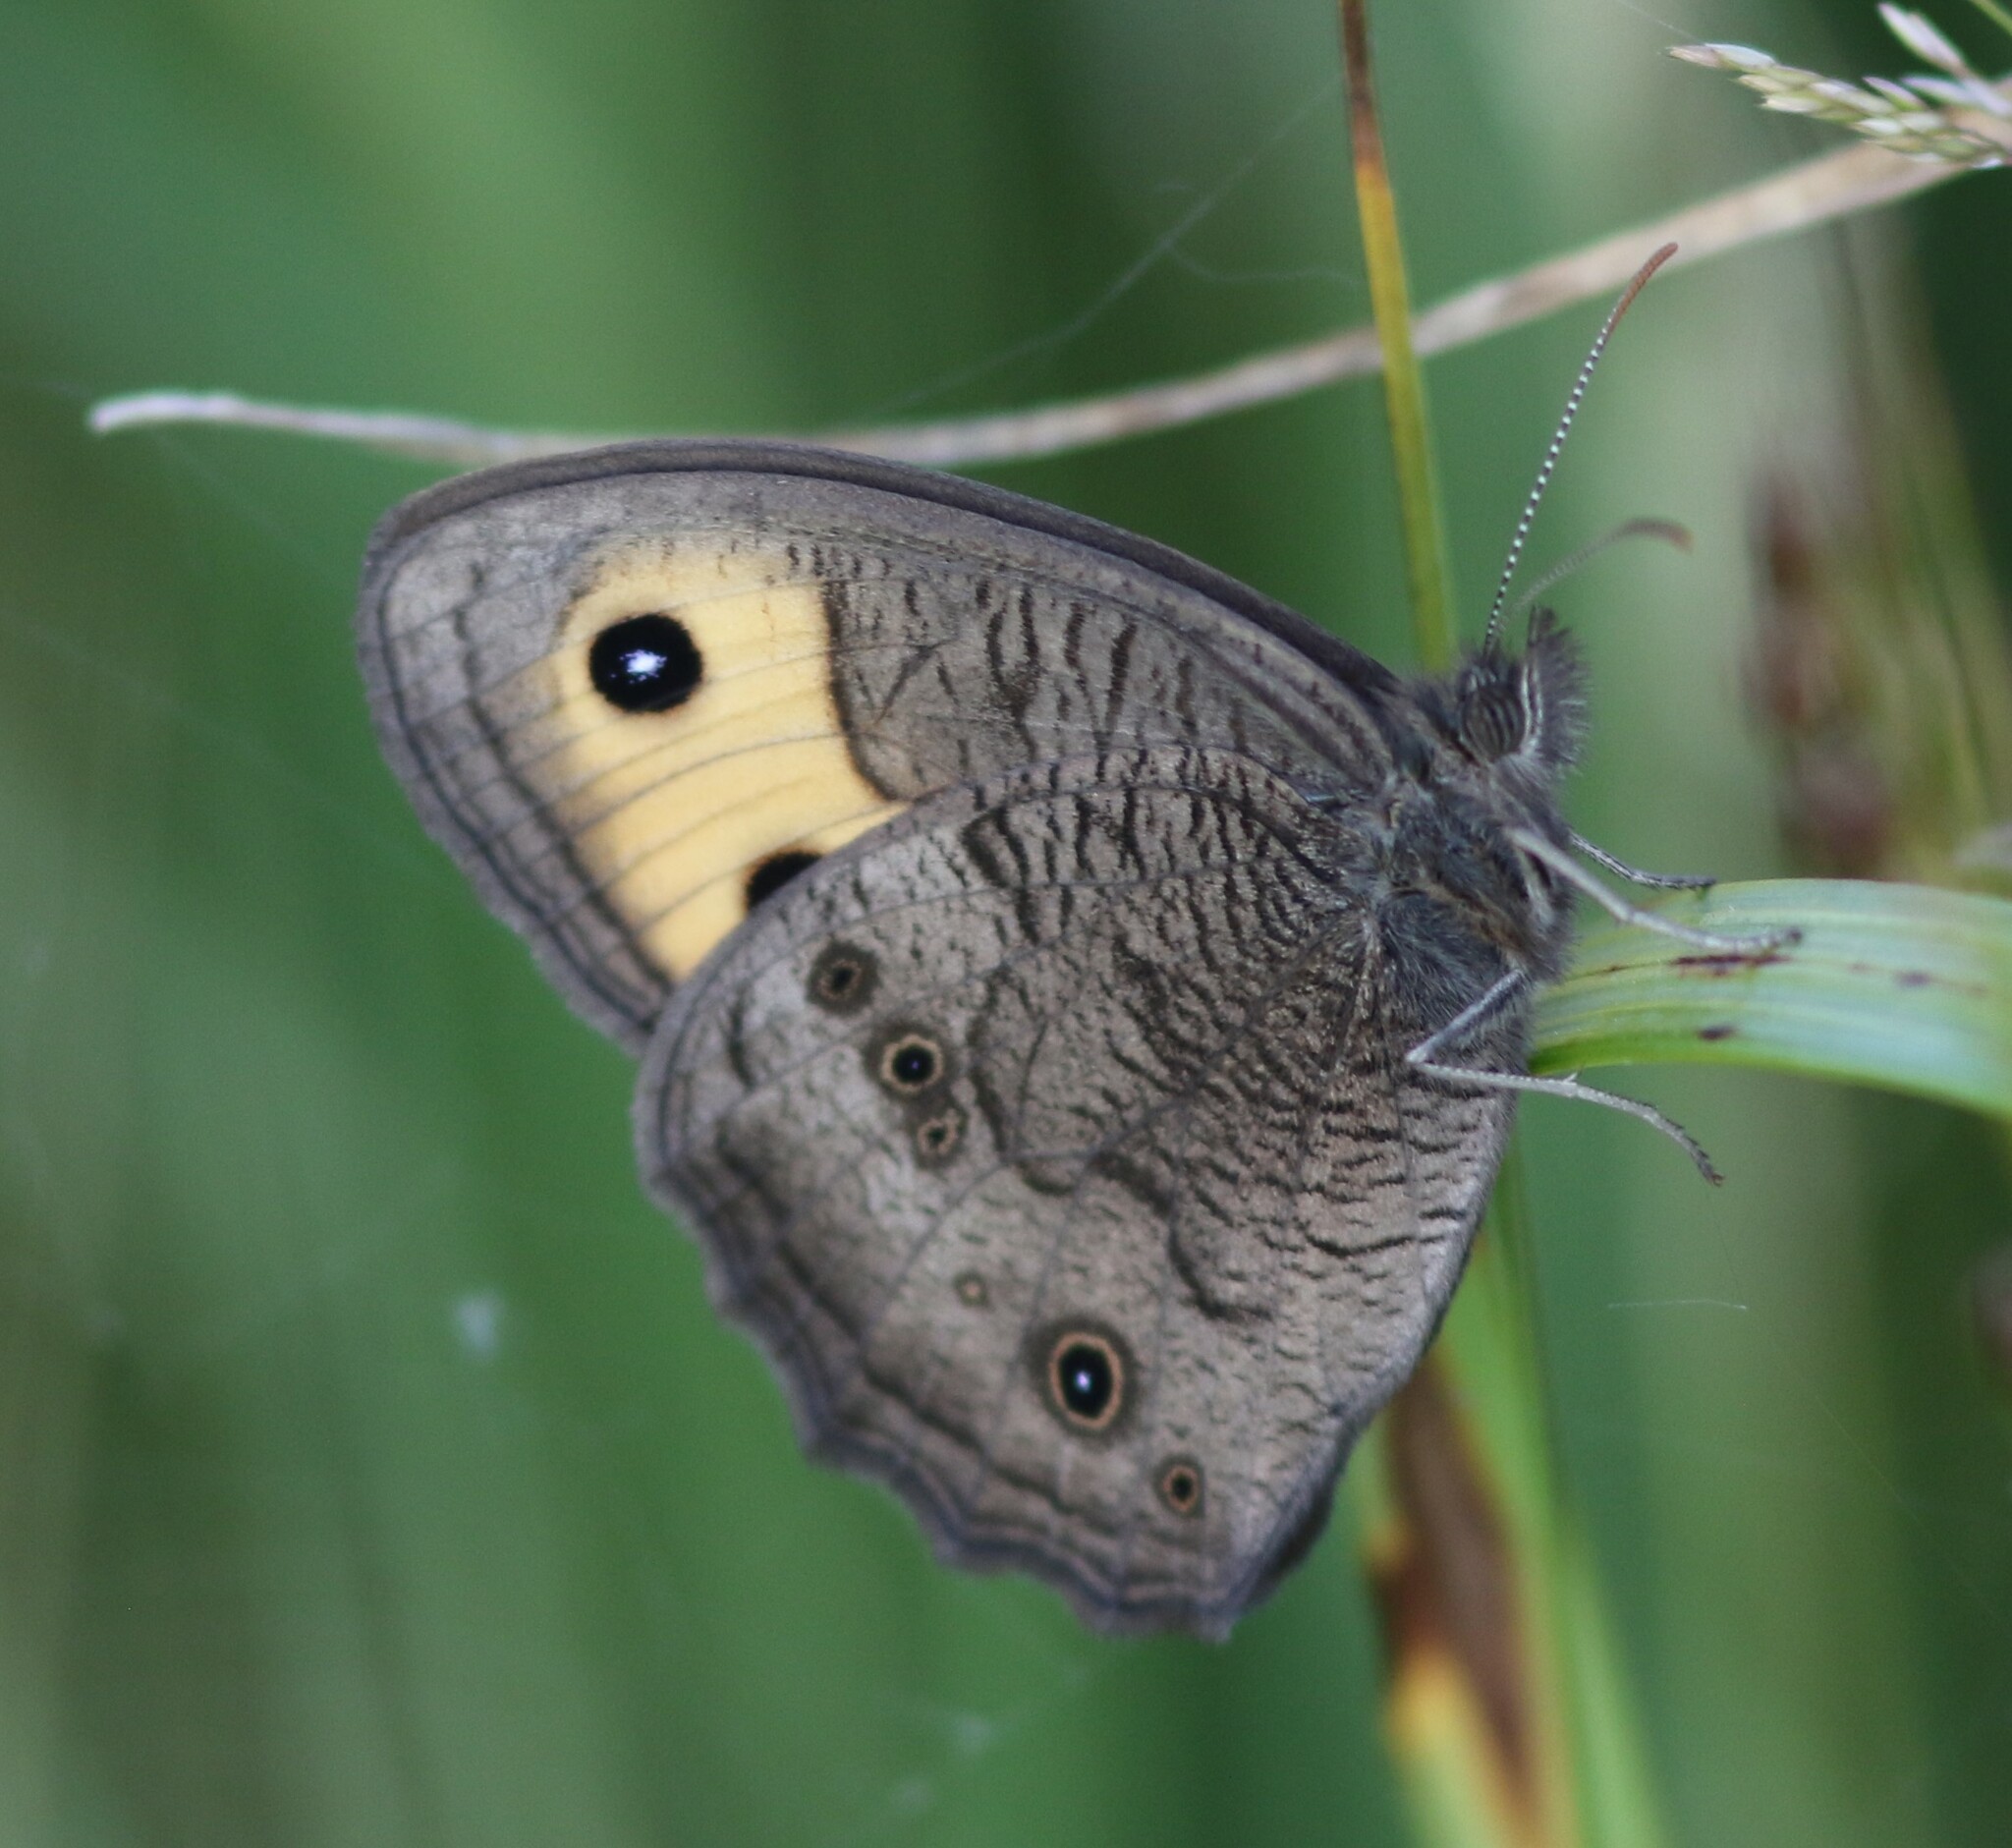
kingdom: Animalia
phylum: Arthropoda
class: Insecta
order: Lepidoptera
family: Nymphalidae
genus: Cercyonis
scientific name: Cercyonis pegala
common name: Common wood-nymph
